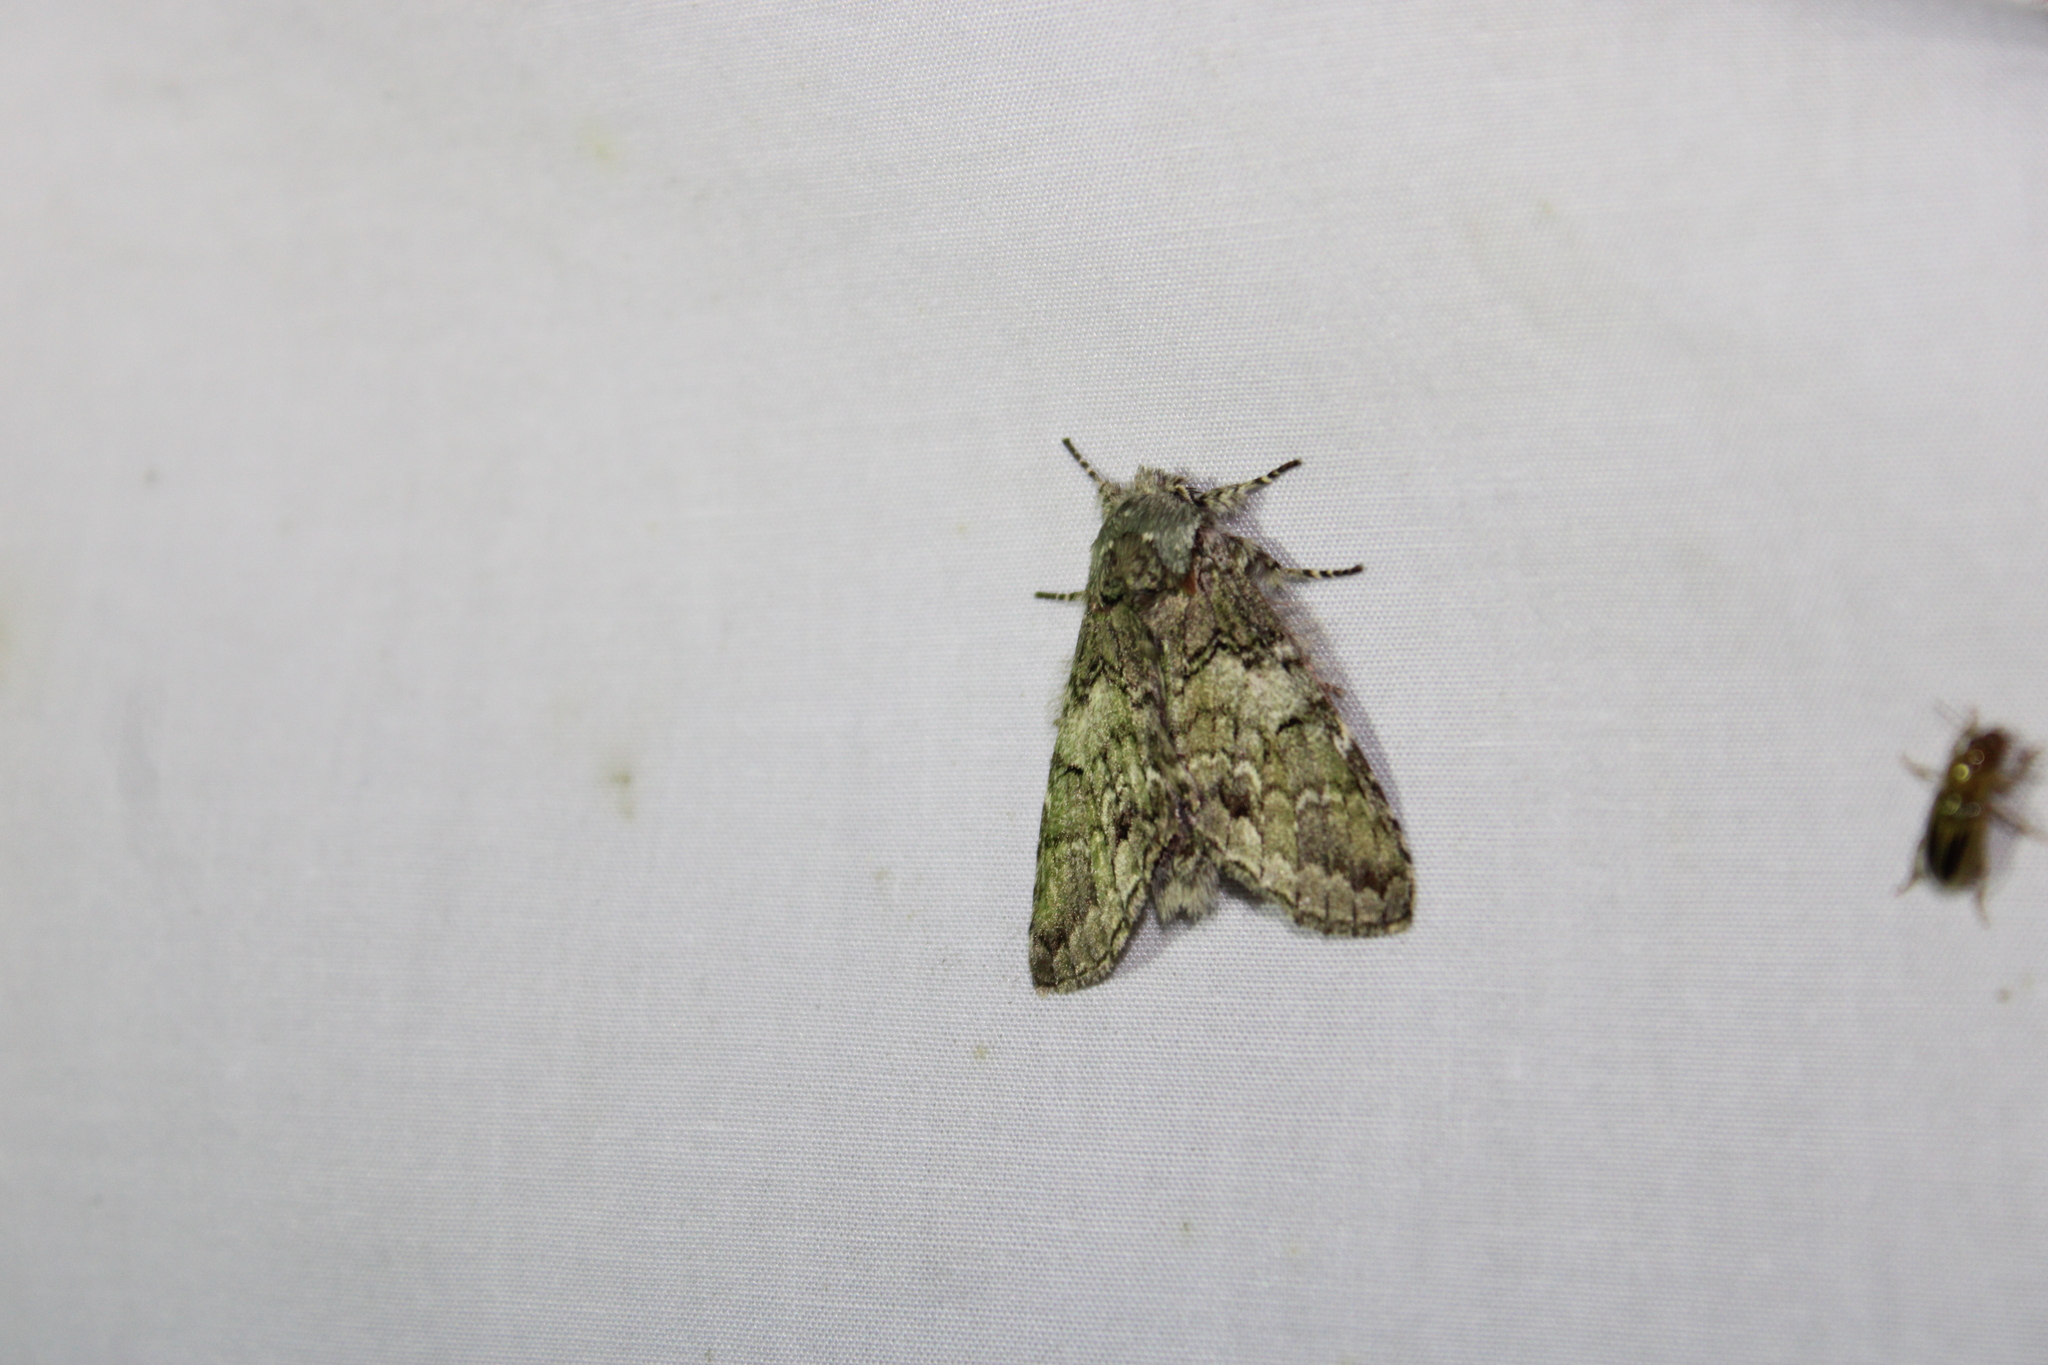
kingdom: Animalia
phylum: Arthropoda
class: Insecta
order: Lepidoptera
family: Notodontidae
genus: Macrurocampa
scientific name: Macrurocampa marthesia
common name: Mottled prominent
